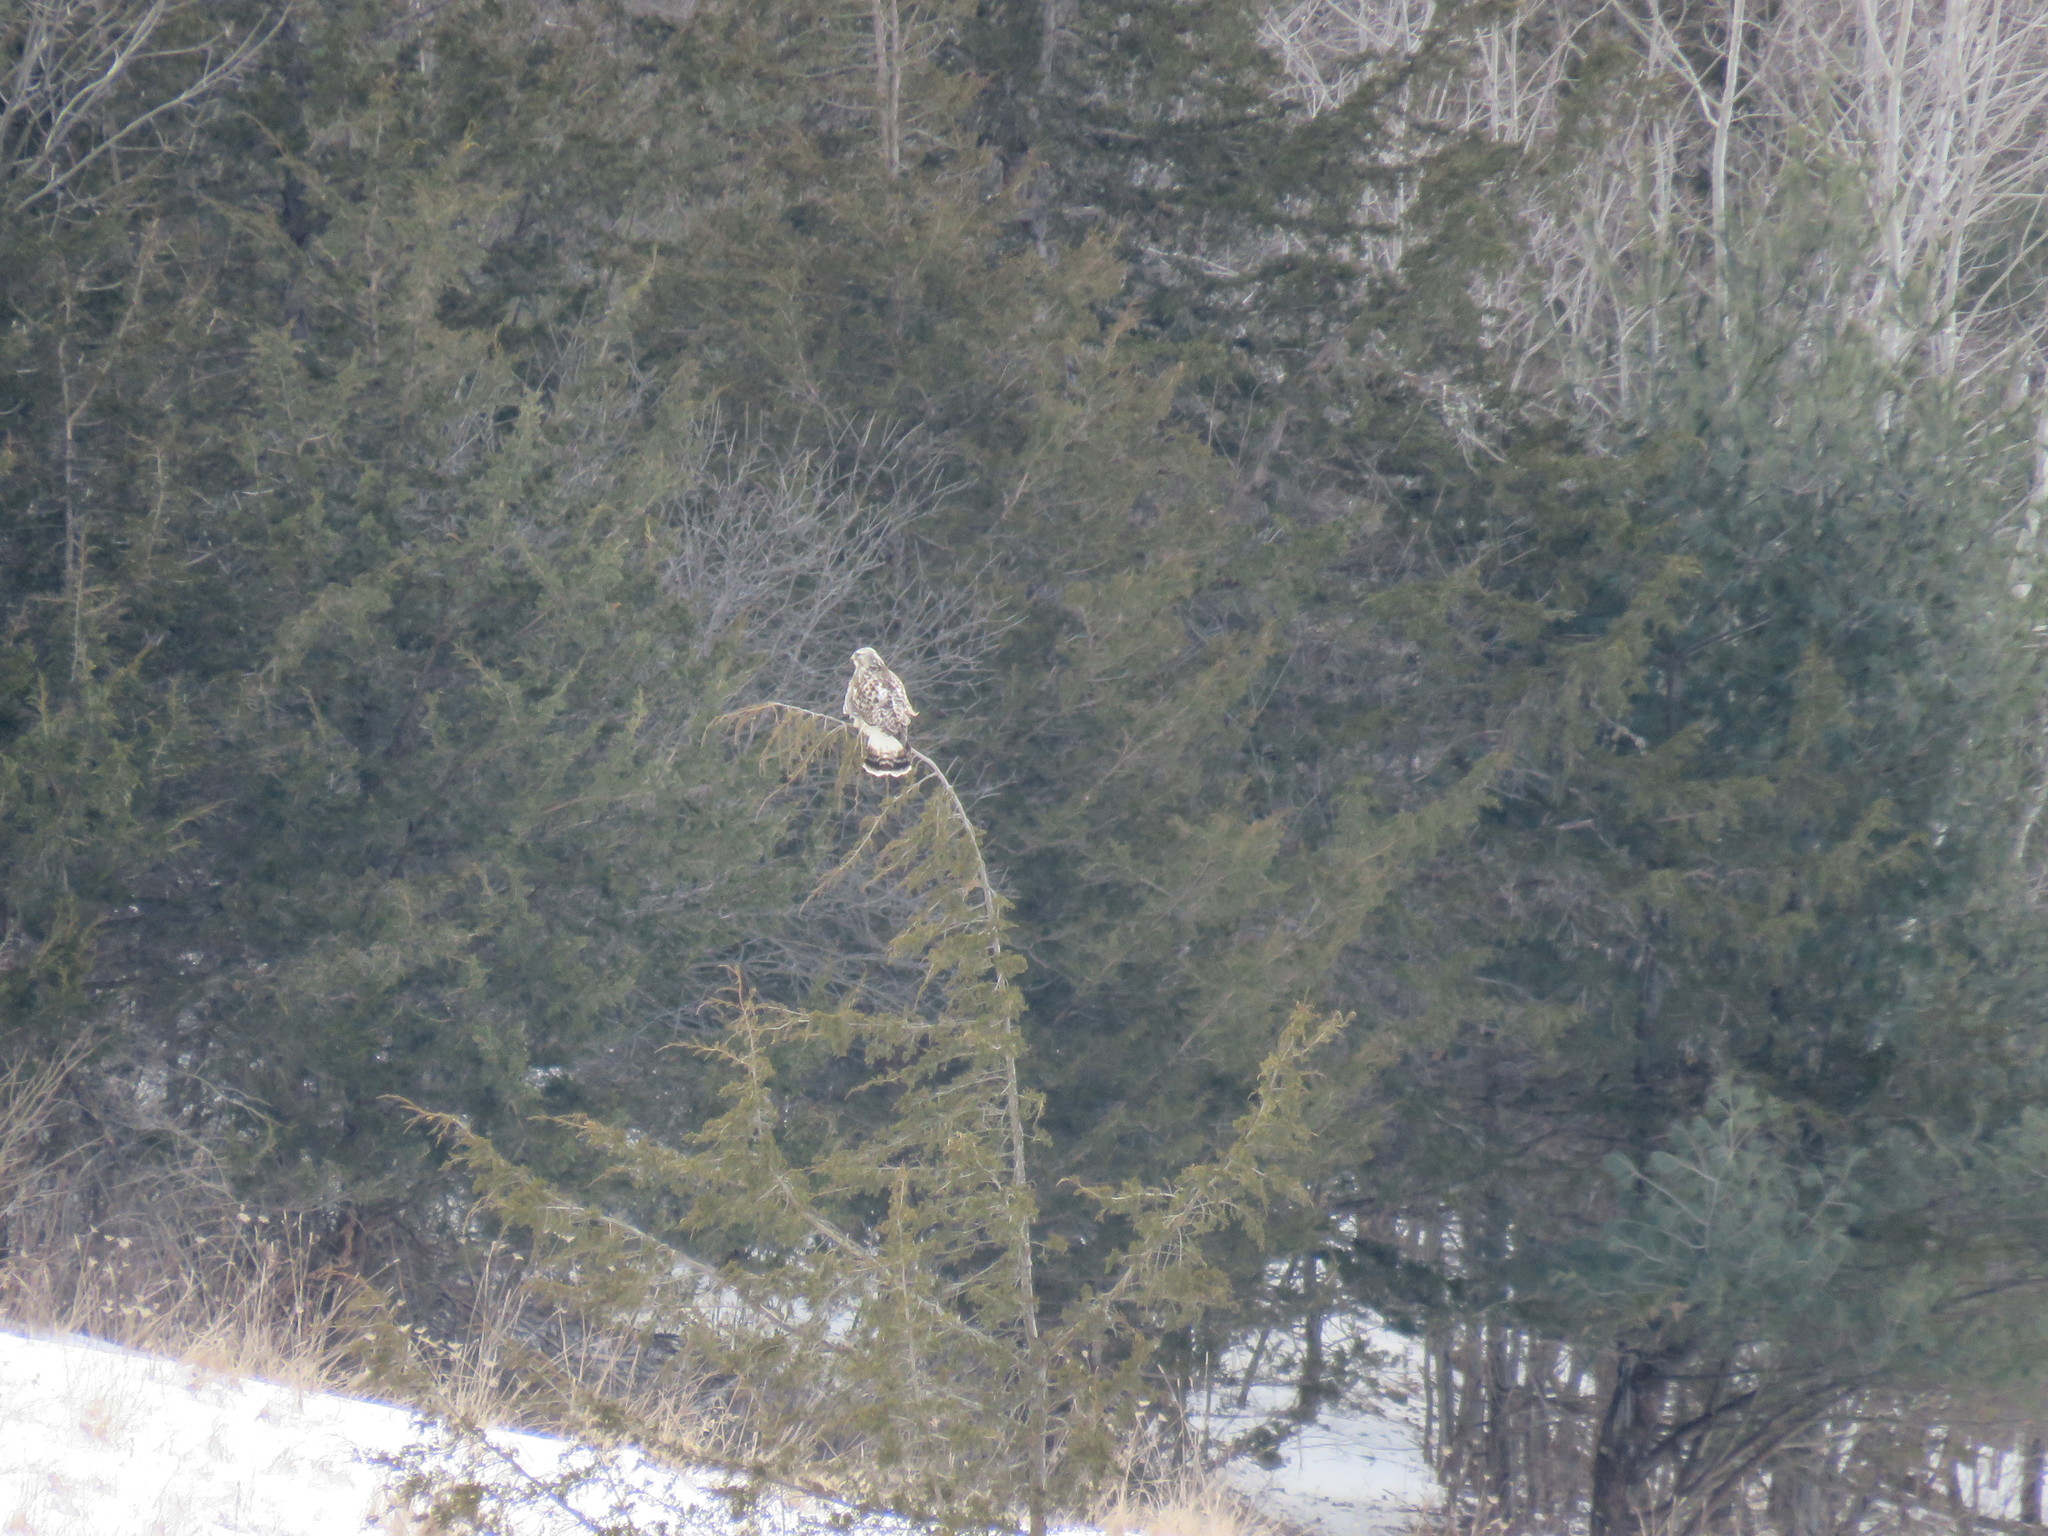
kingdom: Animalia
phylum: Chordata
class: Aves
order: Accipitriformes
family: Accipitridae
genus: Buteo
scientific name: Buteo lagopus
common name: Rough-legged buzzard
